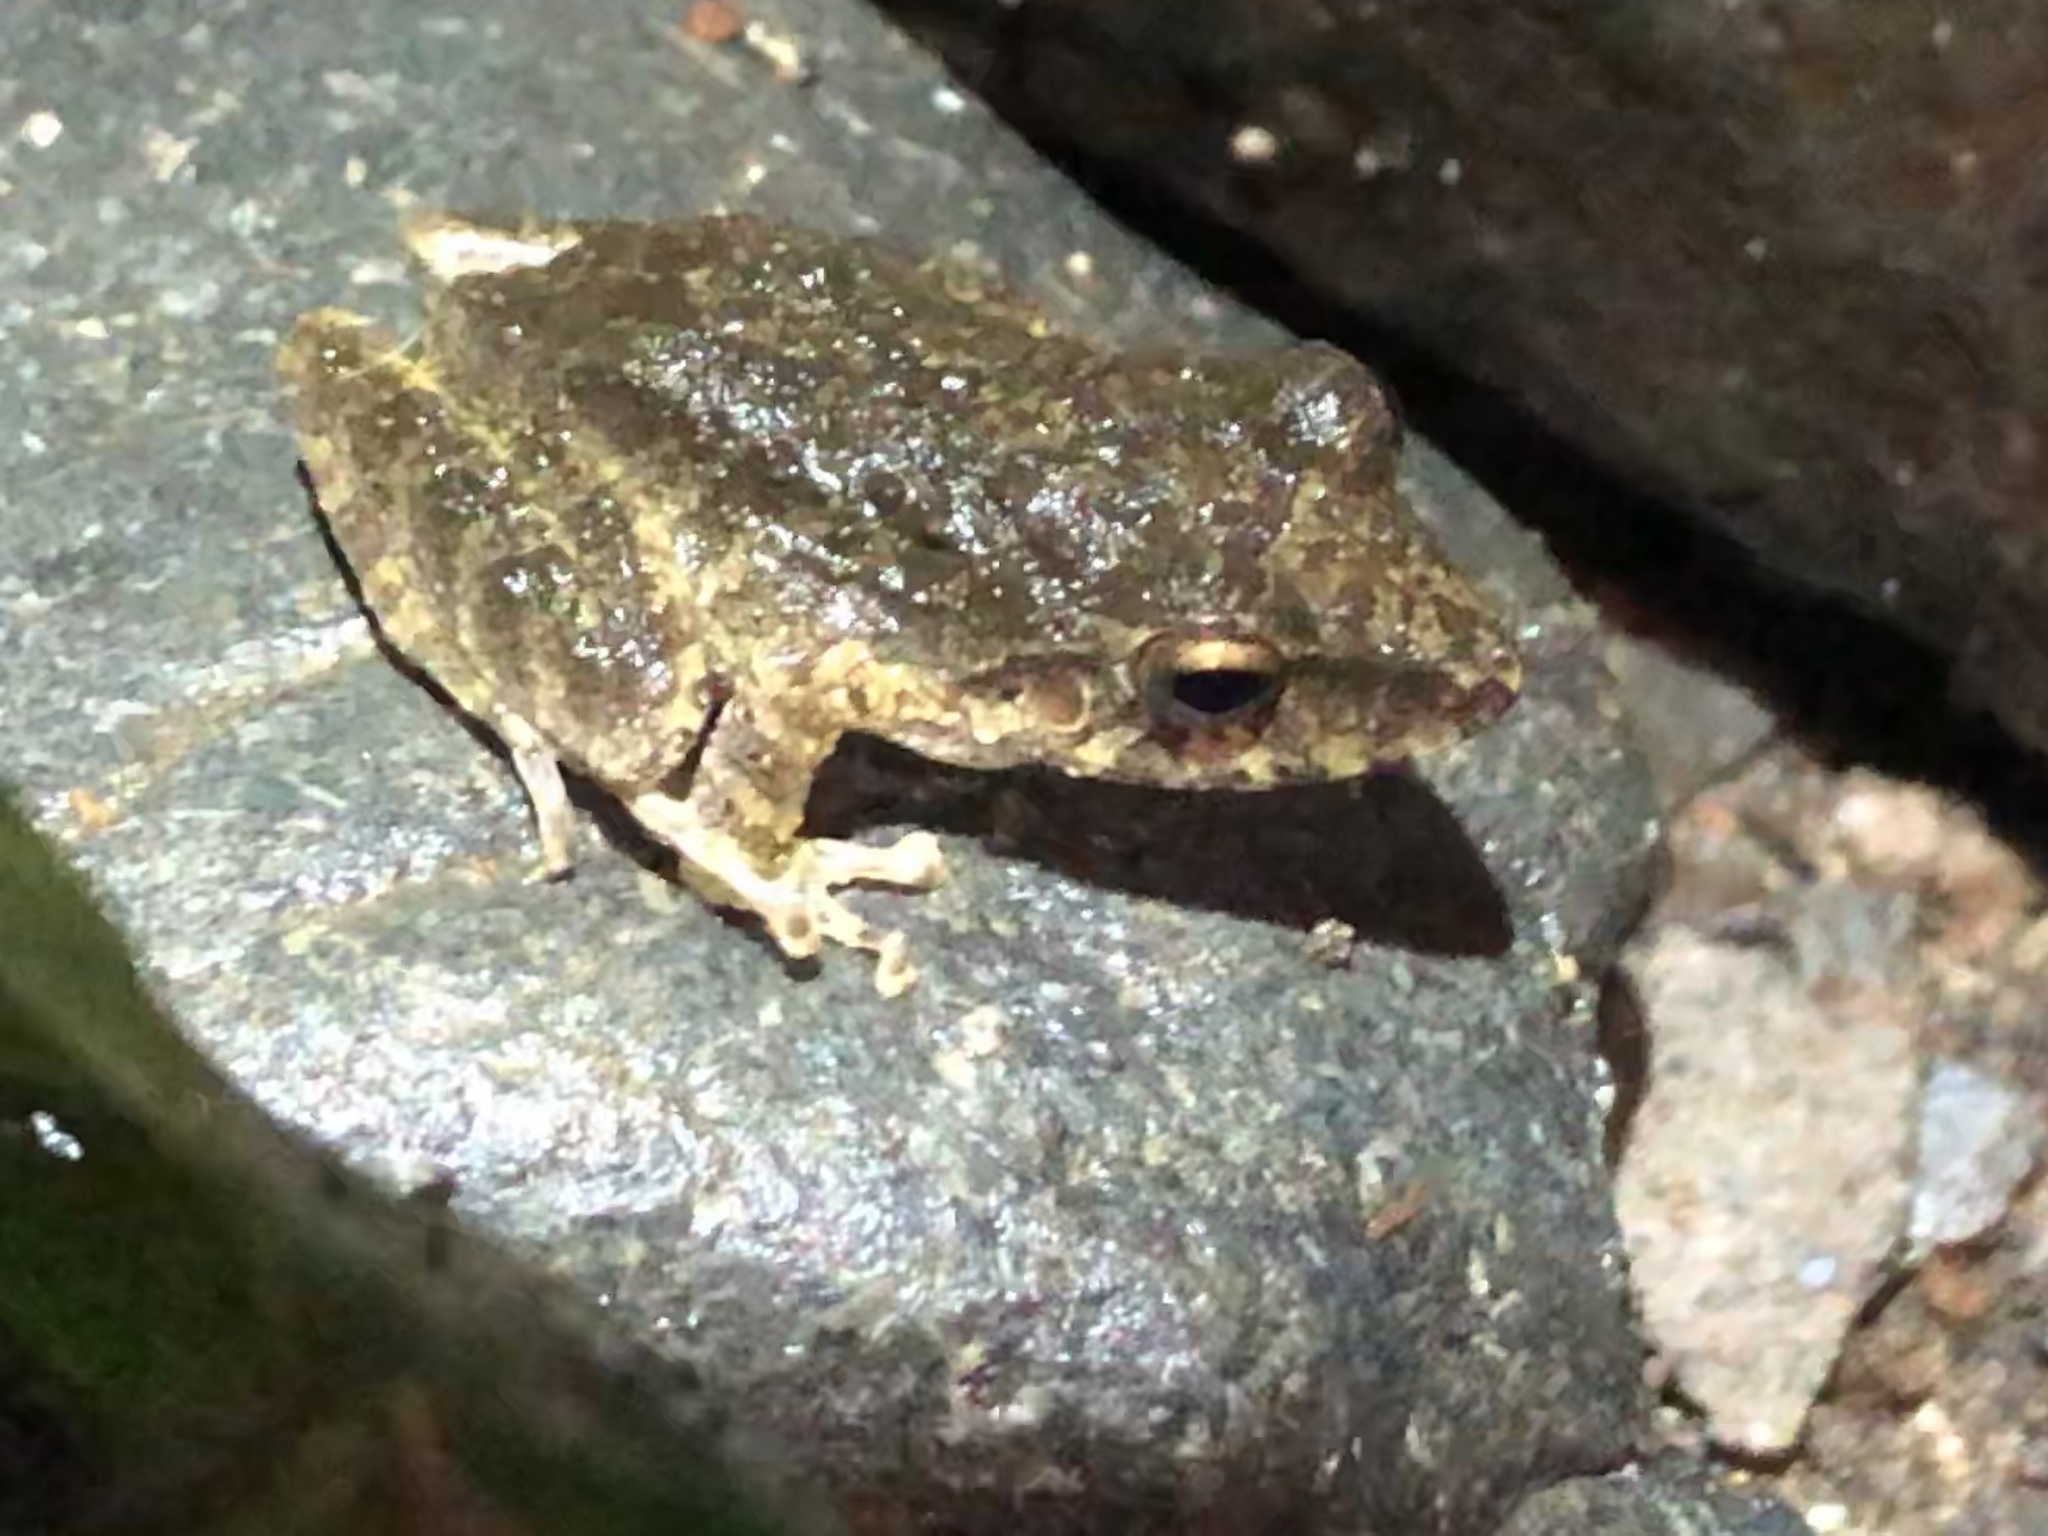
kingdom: Animalia
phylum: Chordata
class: Amphibia
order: Anura
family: Craugastoridae
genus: Pristimantis
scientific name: Pristimantis fenestratus
